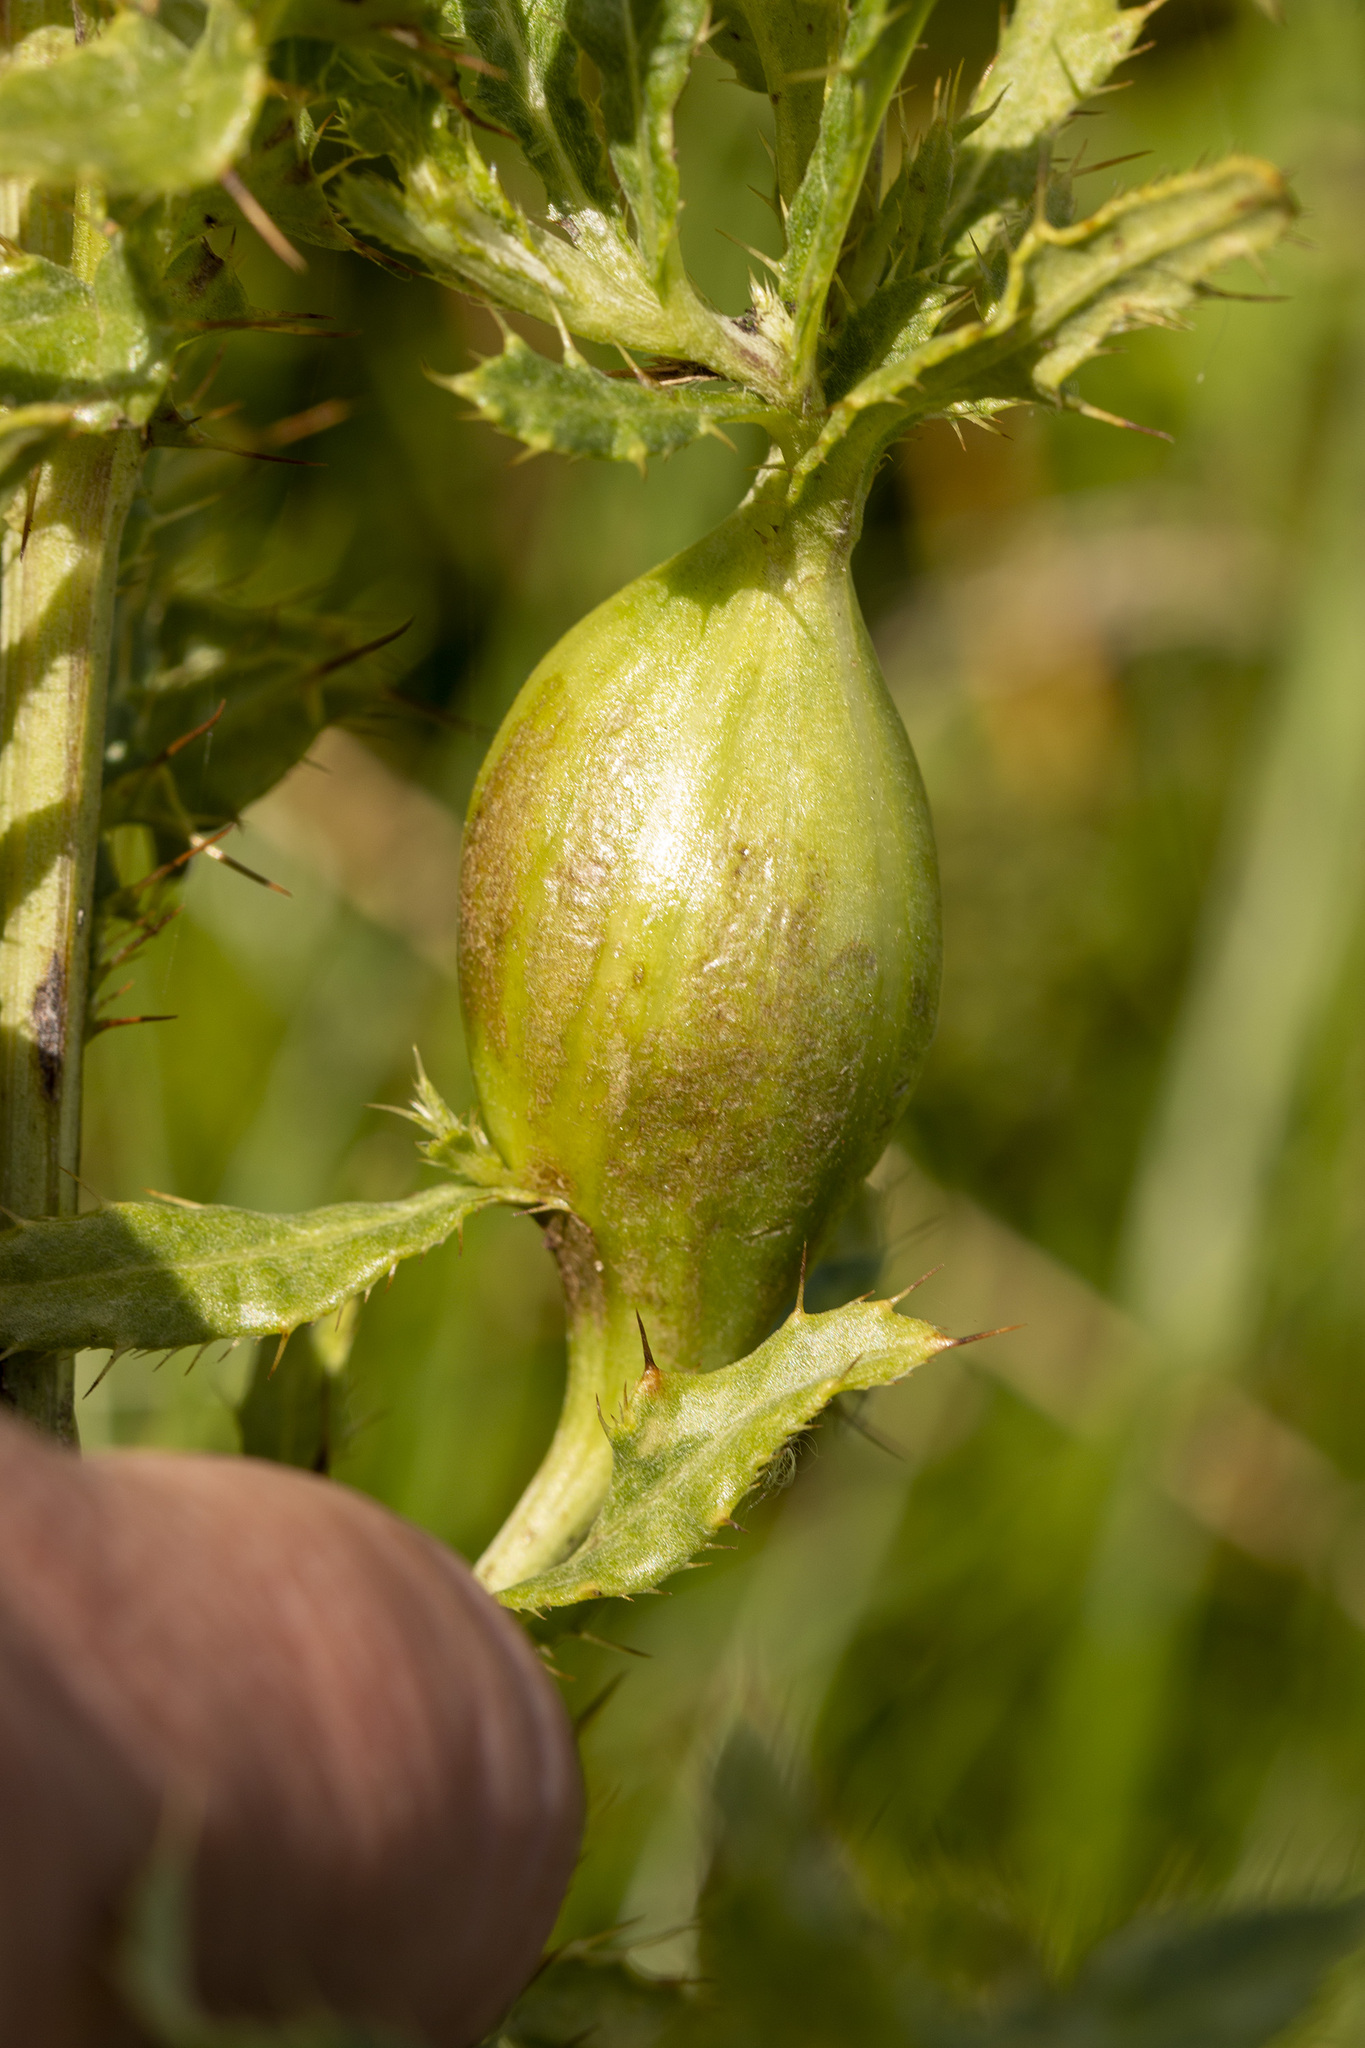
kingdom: Animalia
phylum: Arthropoda
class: Insecta
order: Diptera
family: Tephritidae
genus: Urophora
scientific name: Urophora cardui
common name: Fruit fly
